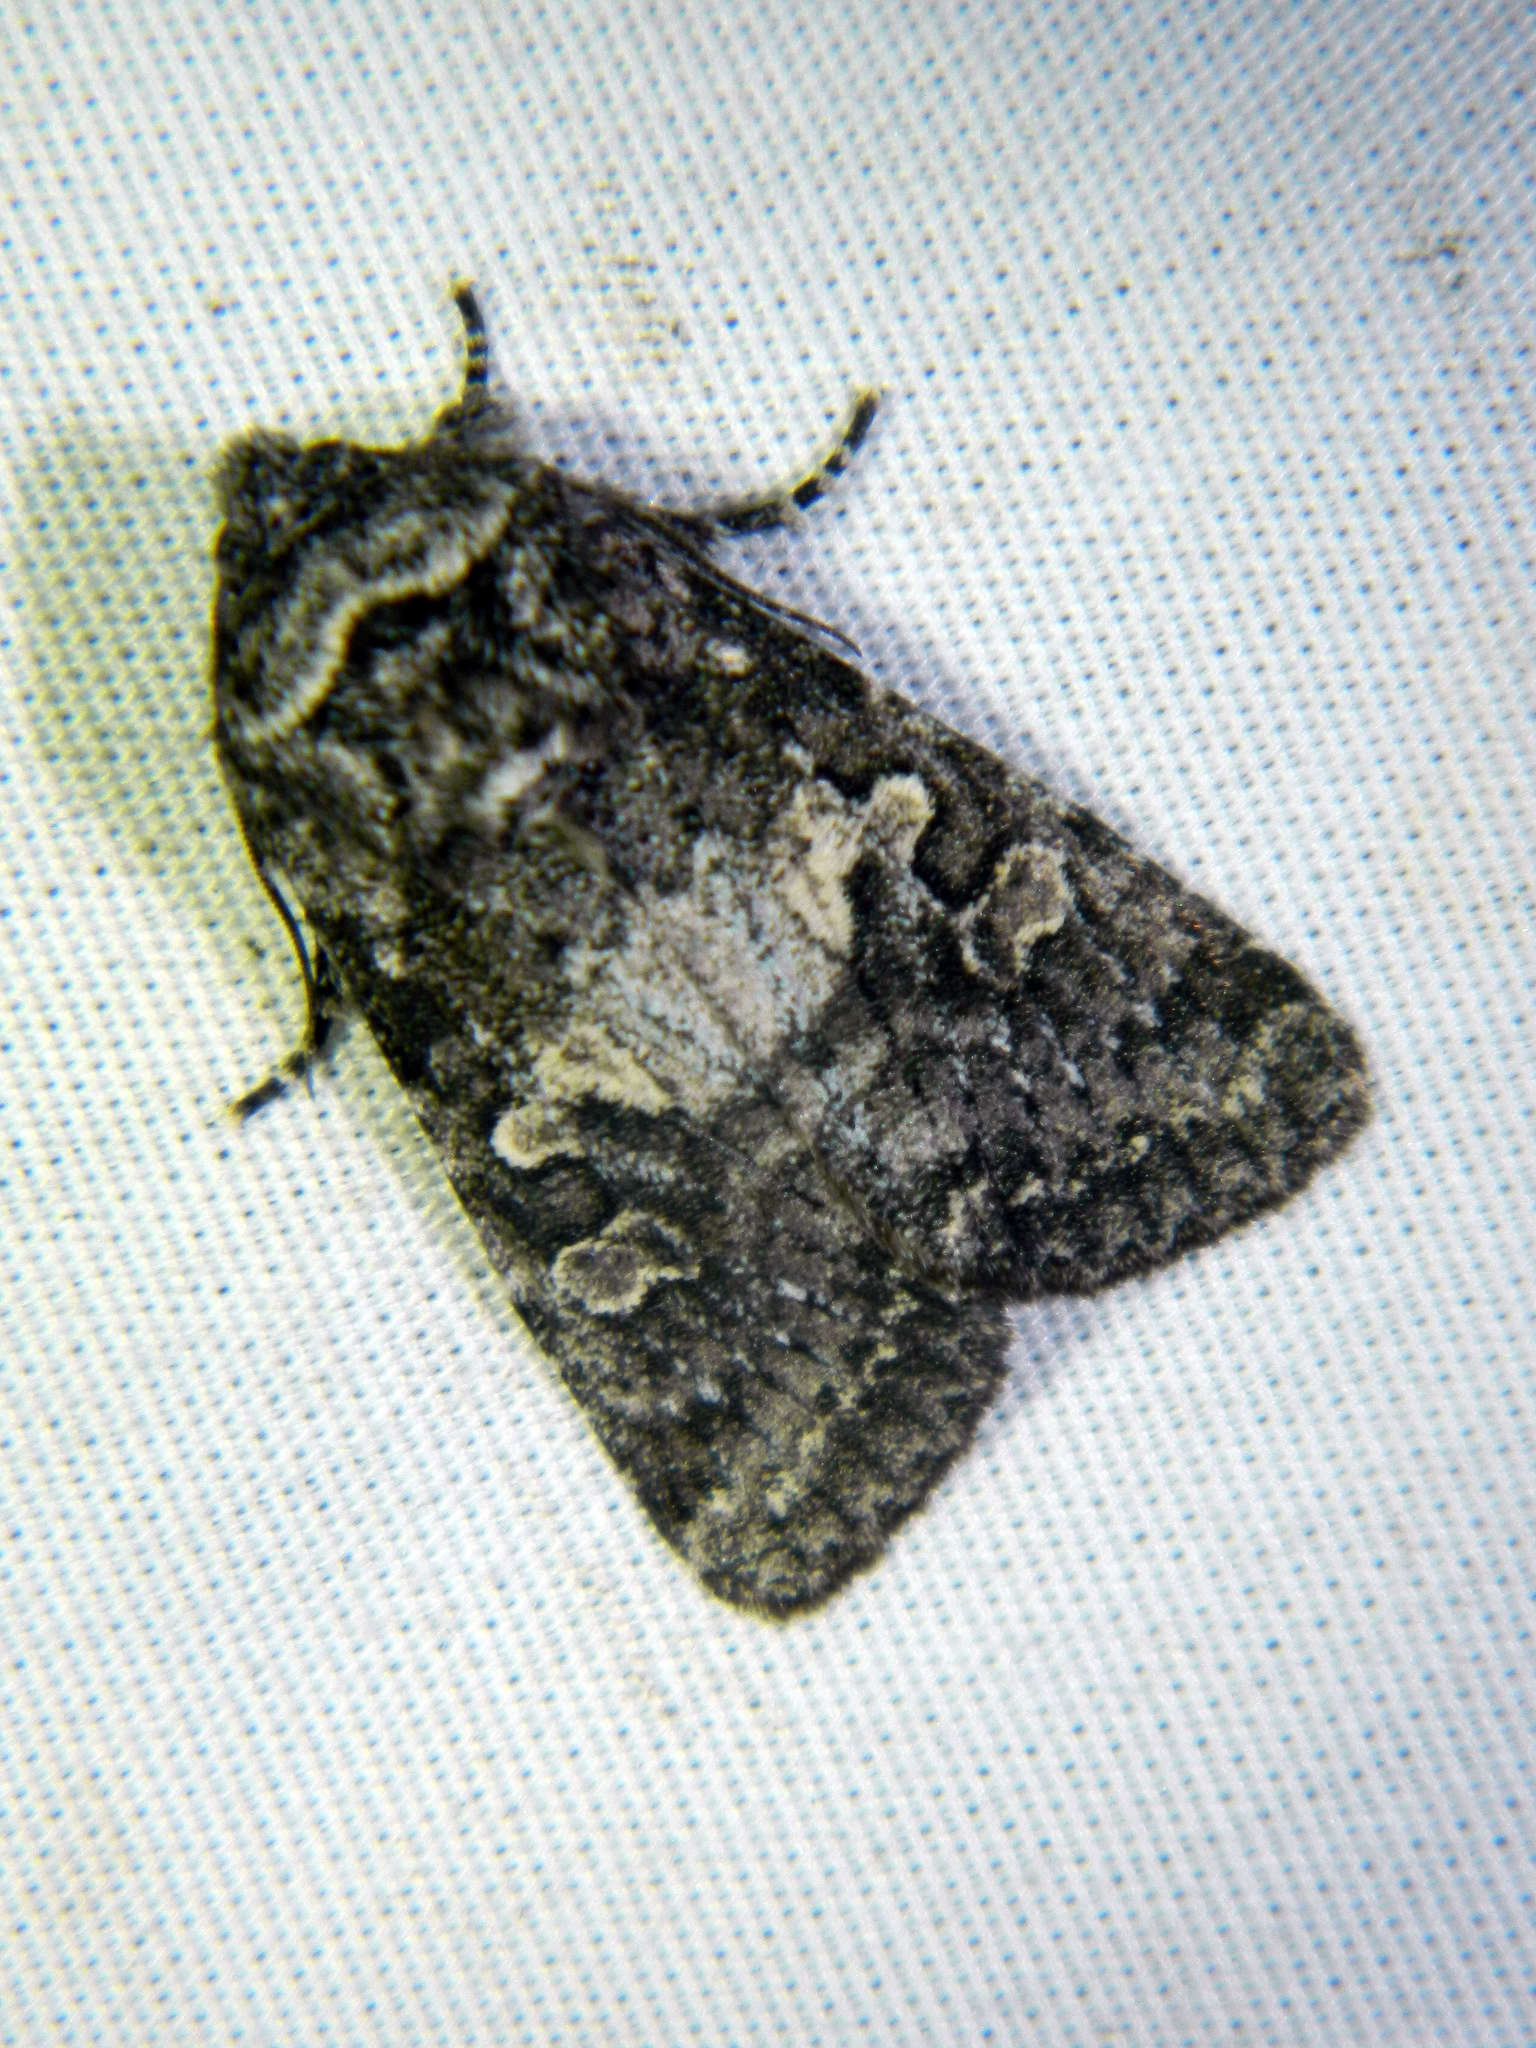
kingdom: Animalia
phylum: Arthropoda
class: Insecta
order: Lepidoptera
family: Noctuidae
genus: Egira
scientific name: Egira dolosa
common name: Lined black aspen cat.
